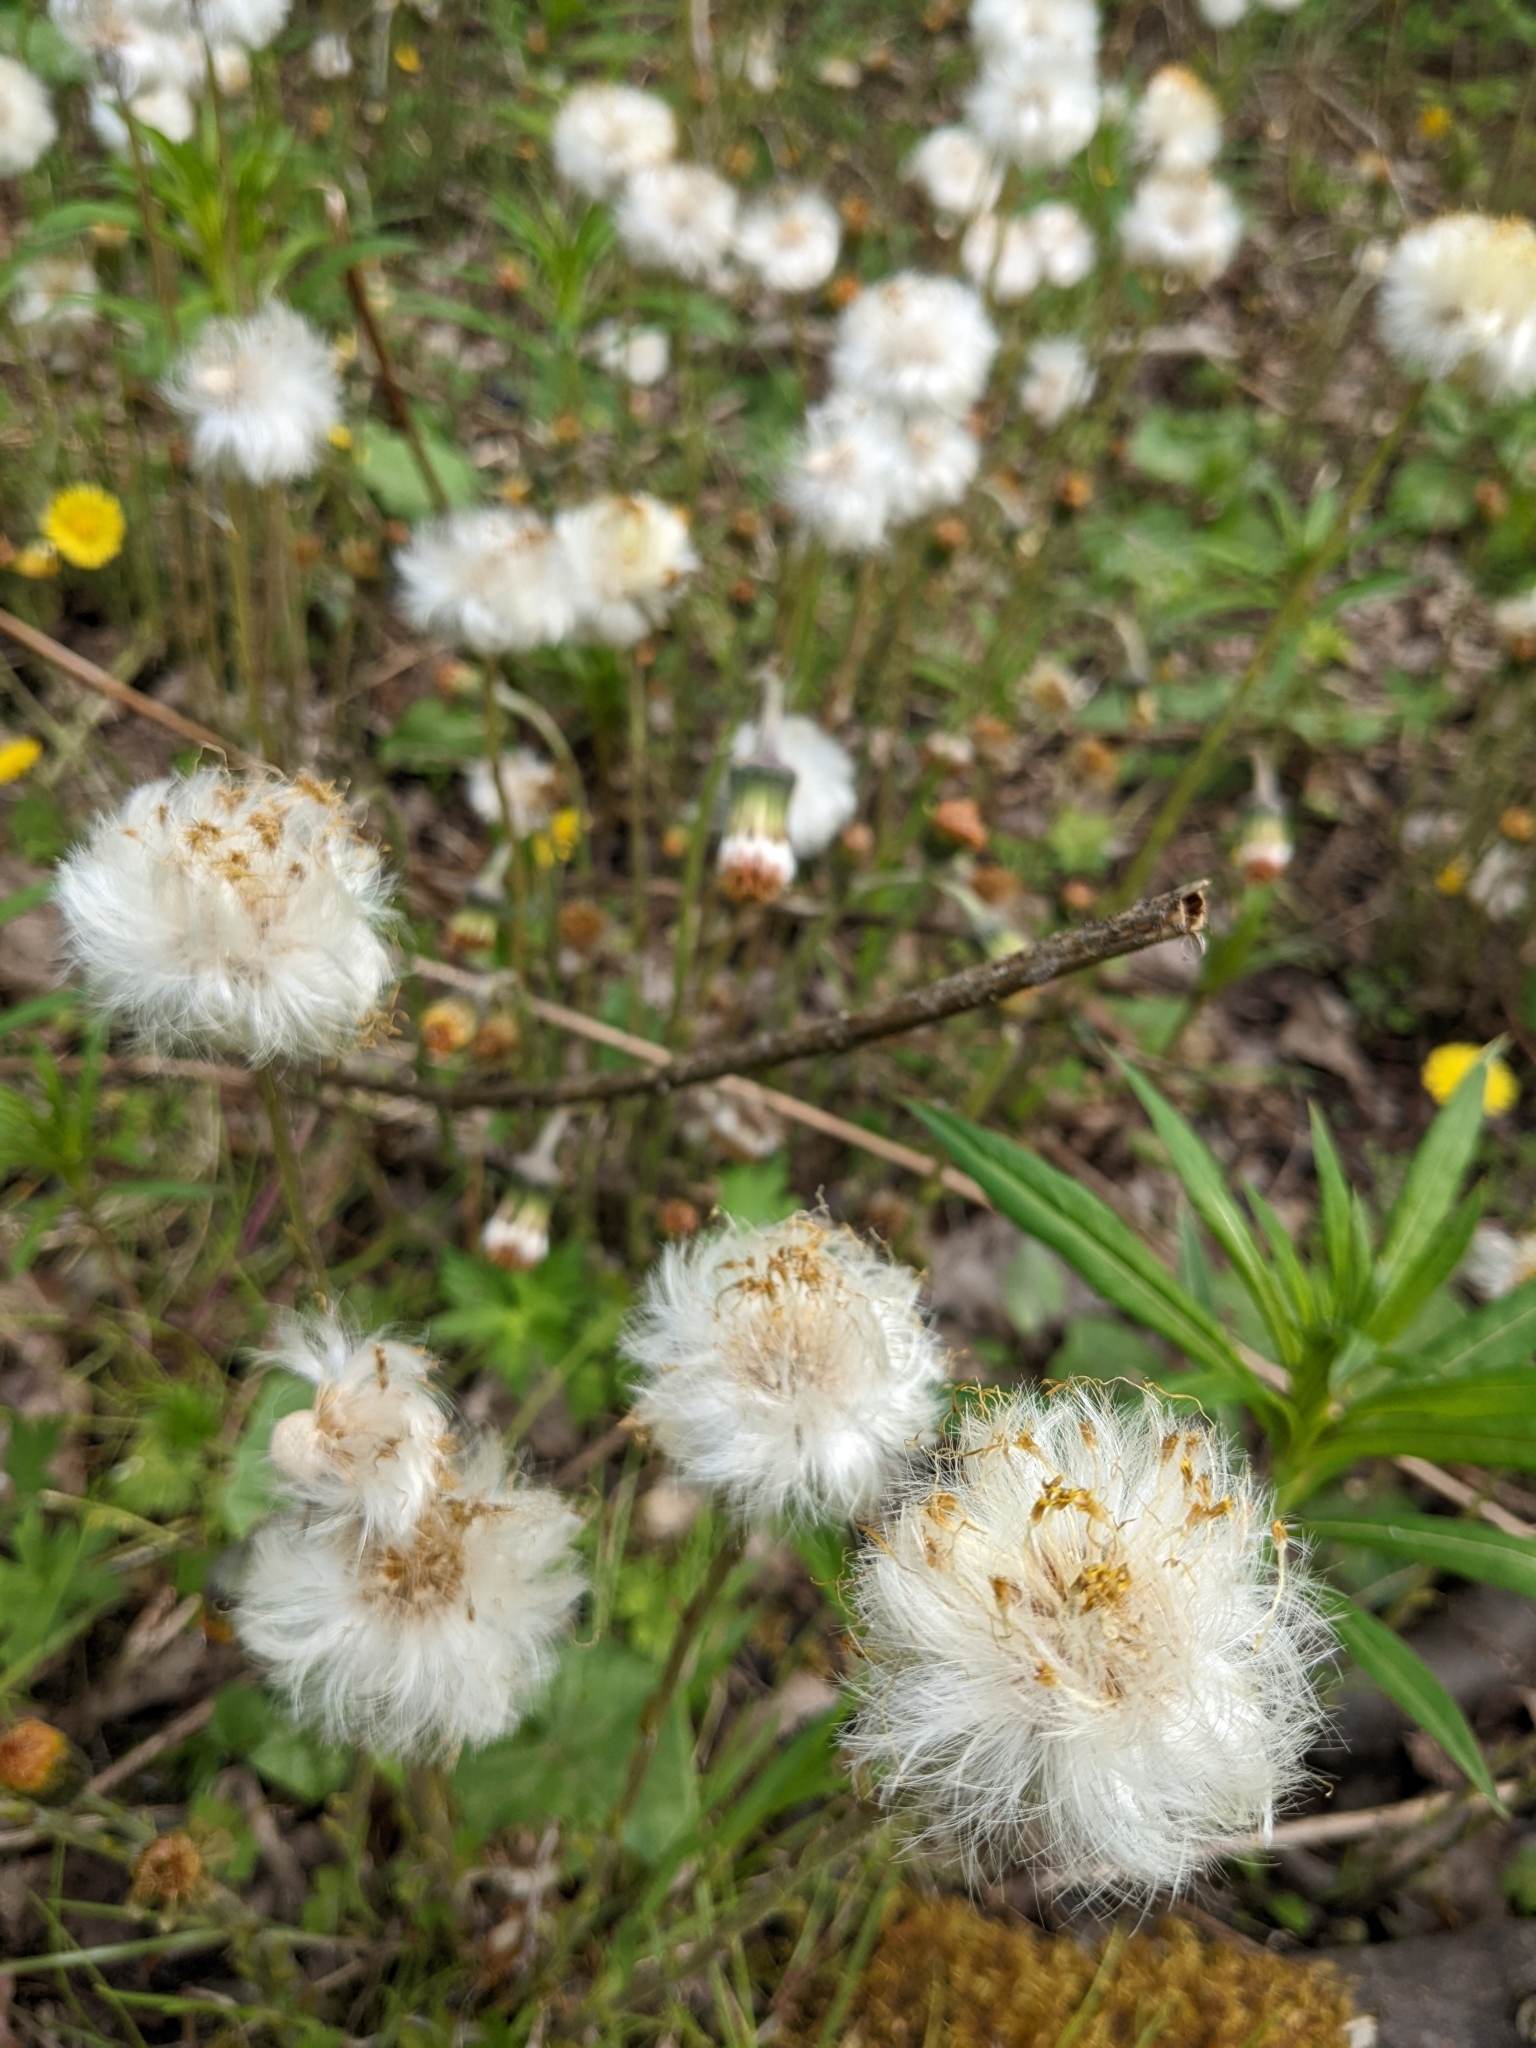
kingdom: Plantae
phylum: Tracheophyta
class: Magnoliopsida
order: Asterales
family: Asteraceae
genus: Tussilago
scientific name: Tussilago farfara
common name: Coltsfoot
